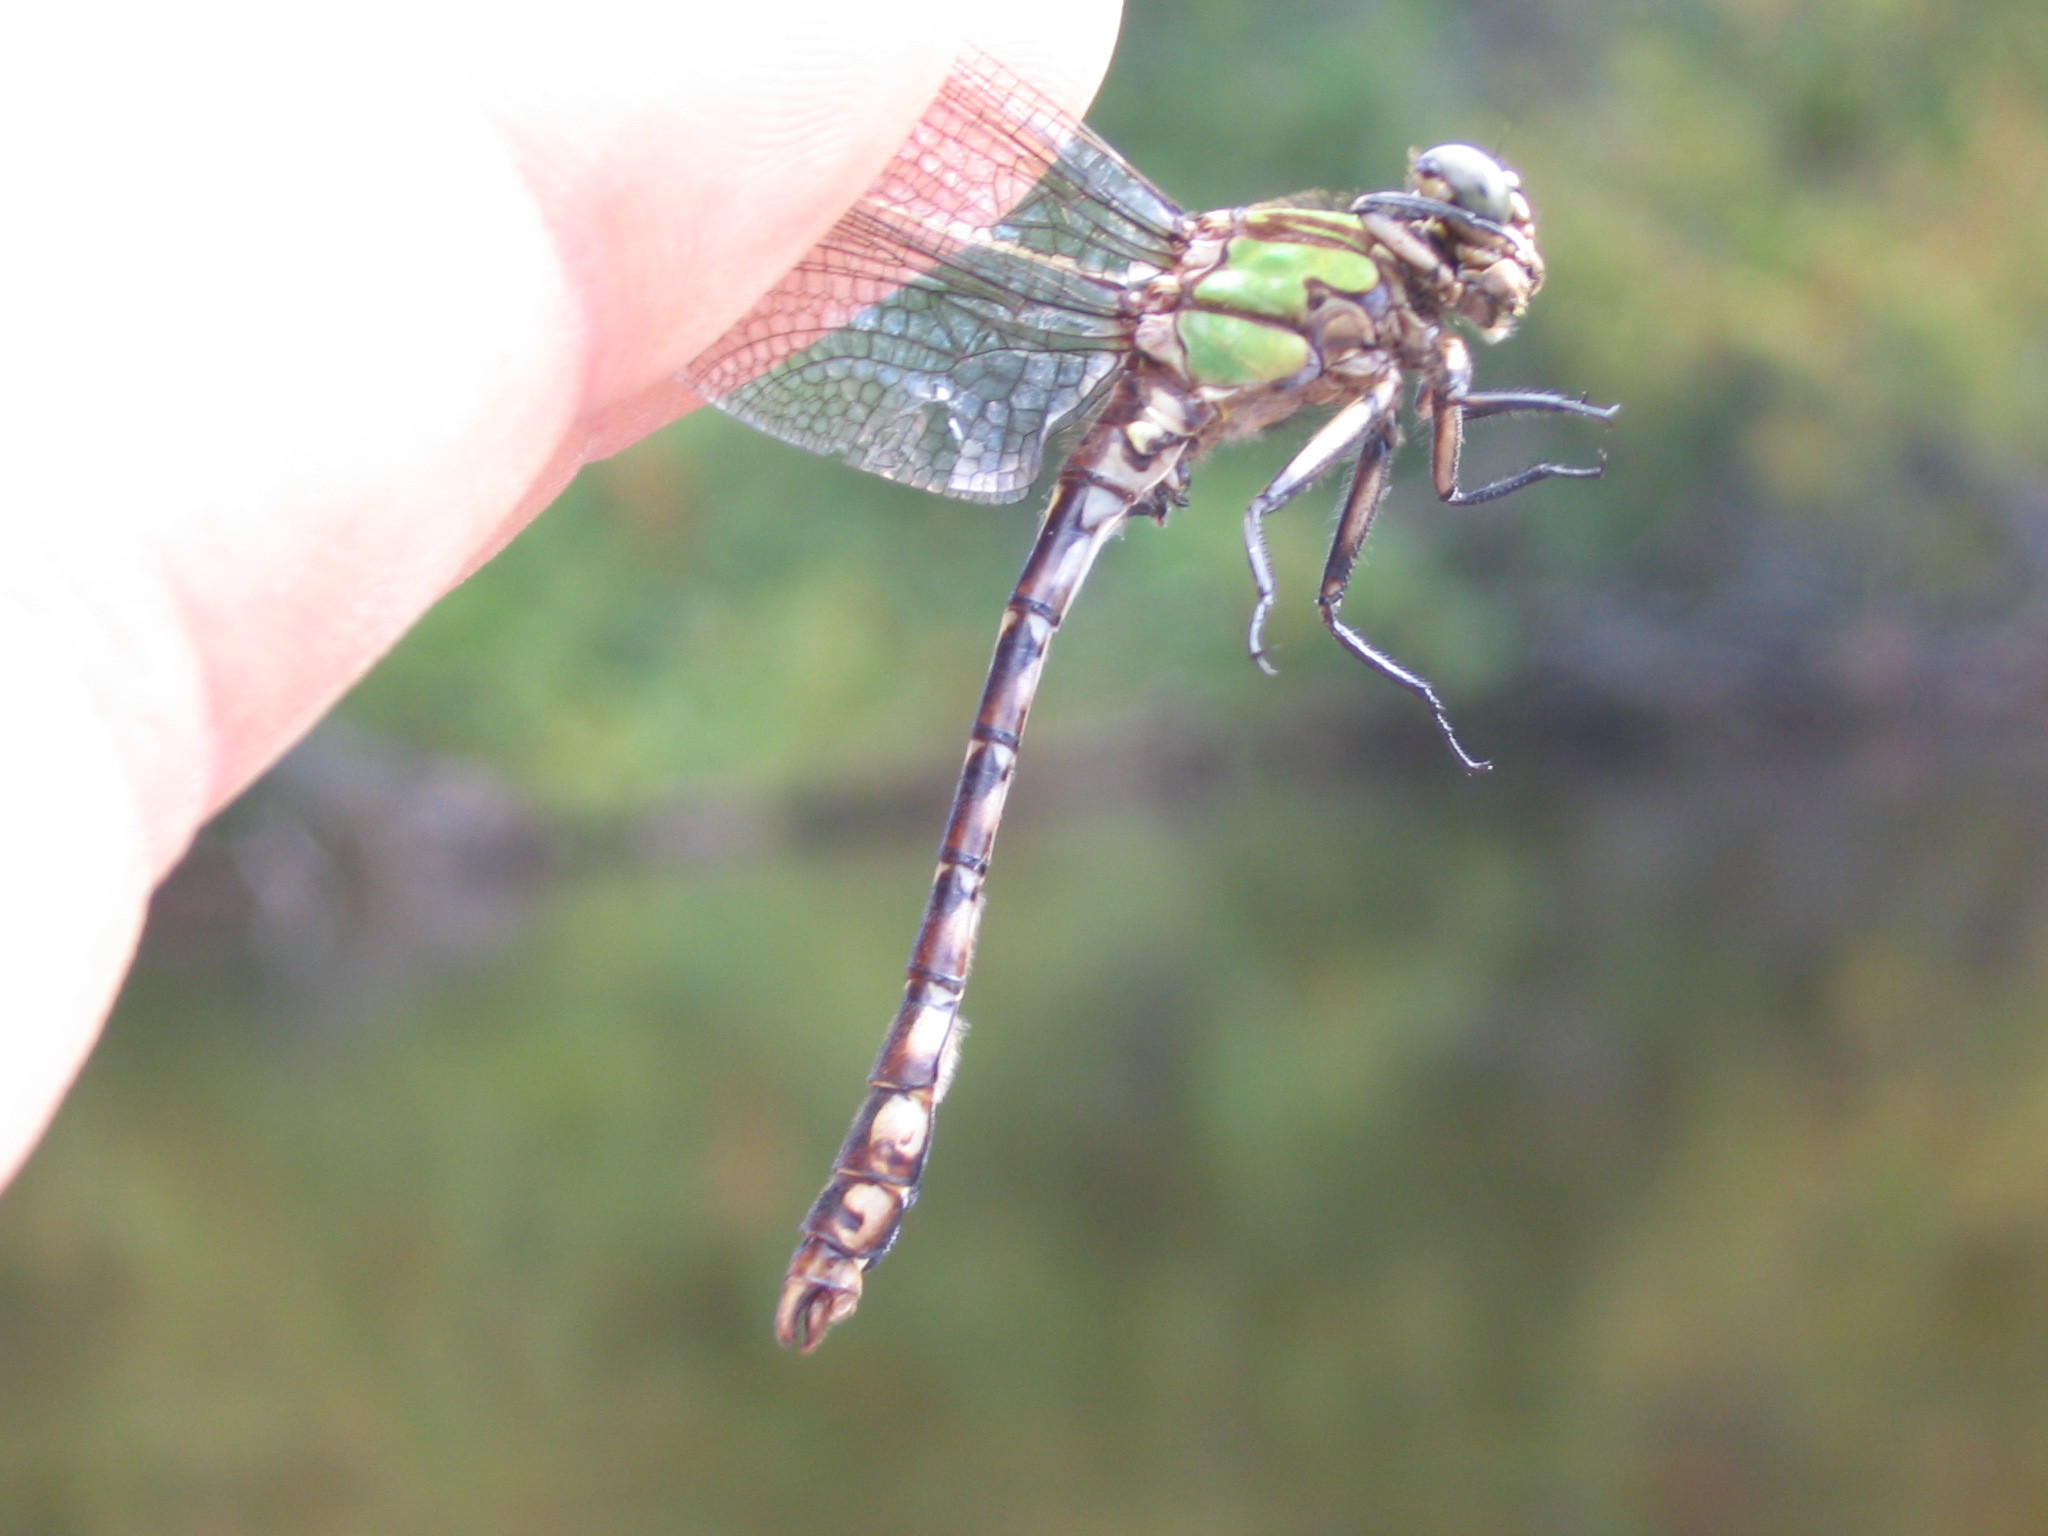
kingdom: Animalia
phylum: Arthropoda
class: Insecta
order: Odonata
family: Gomphidae
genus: Ophiogomphus
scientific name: Ophiogomphus colubrinus
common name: Boreal snaketail
